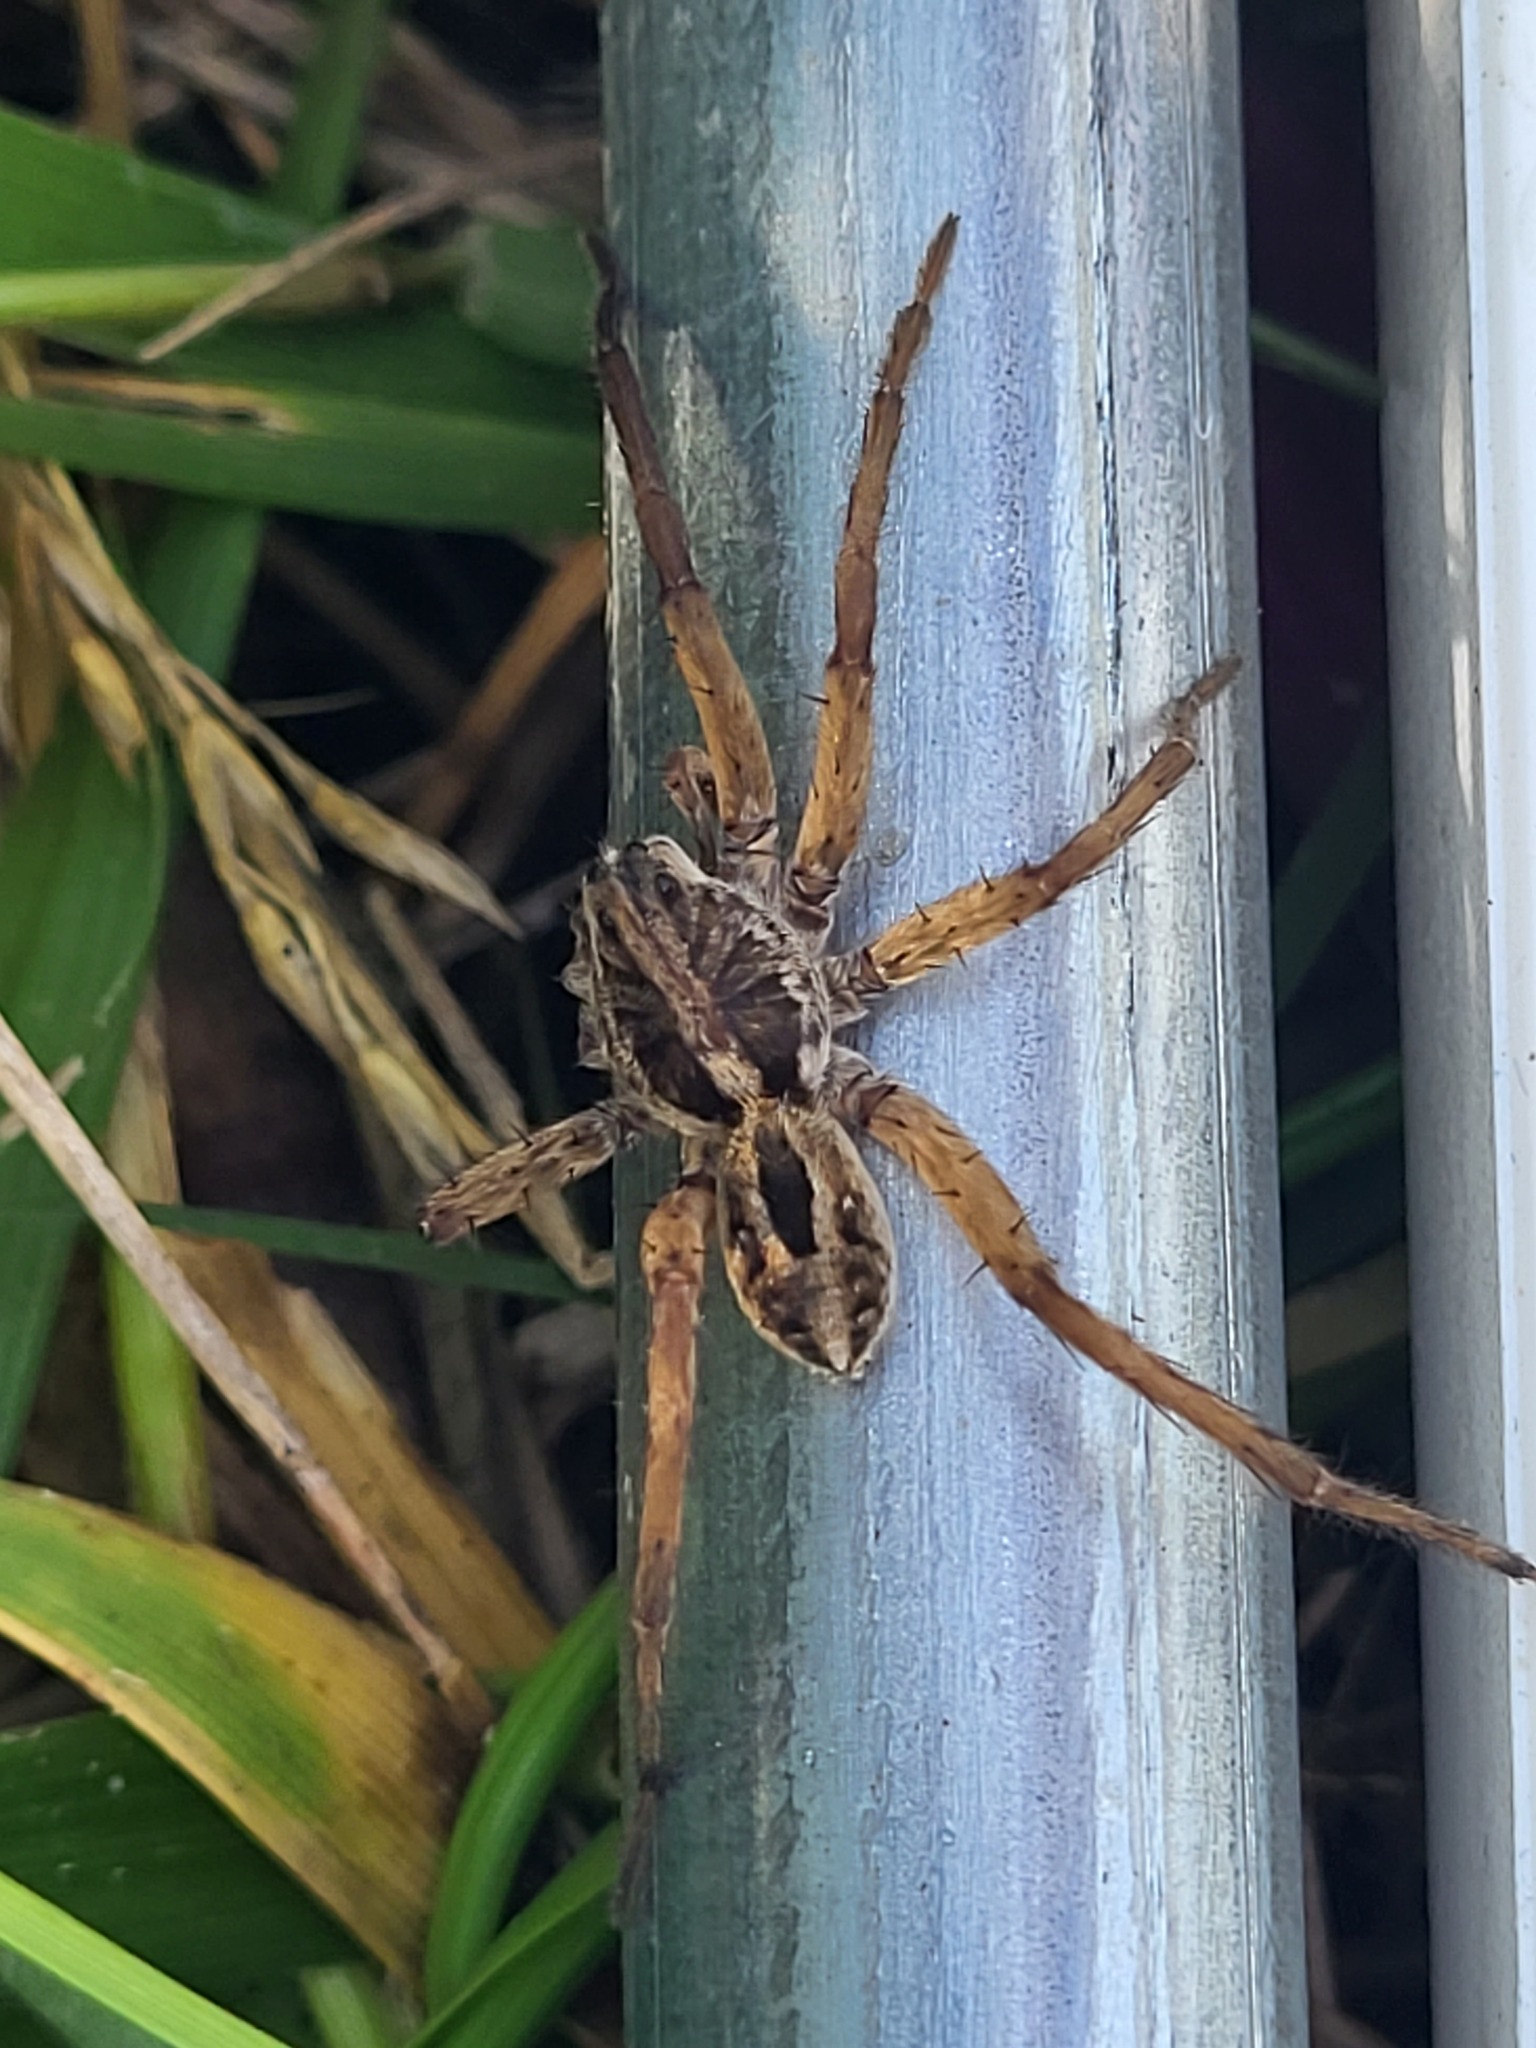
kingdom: Animalia
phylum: Arthropoda
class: Arachnida
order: Araneae
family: Lycosidae
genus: Schizocosa
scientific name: Schizocosa avida
